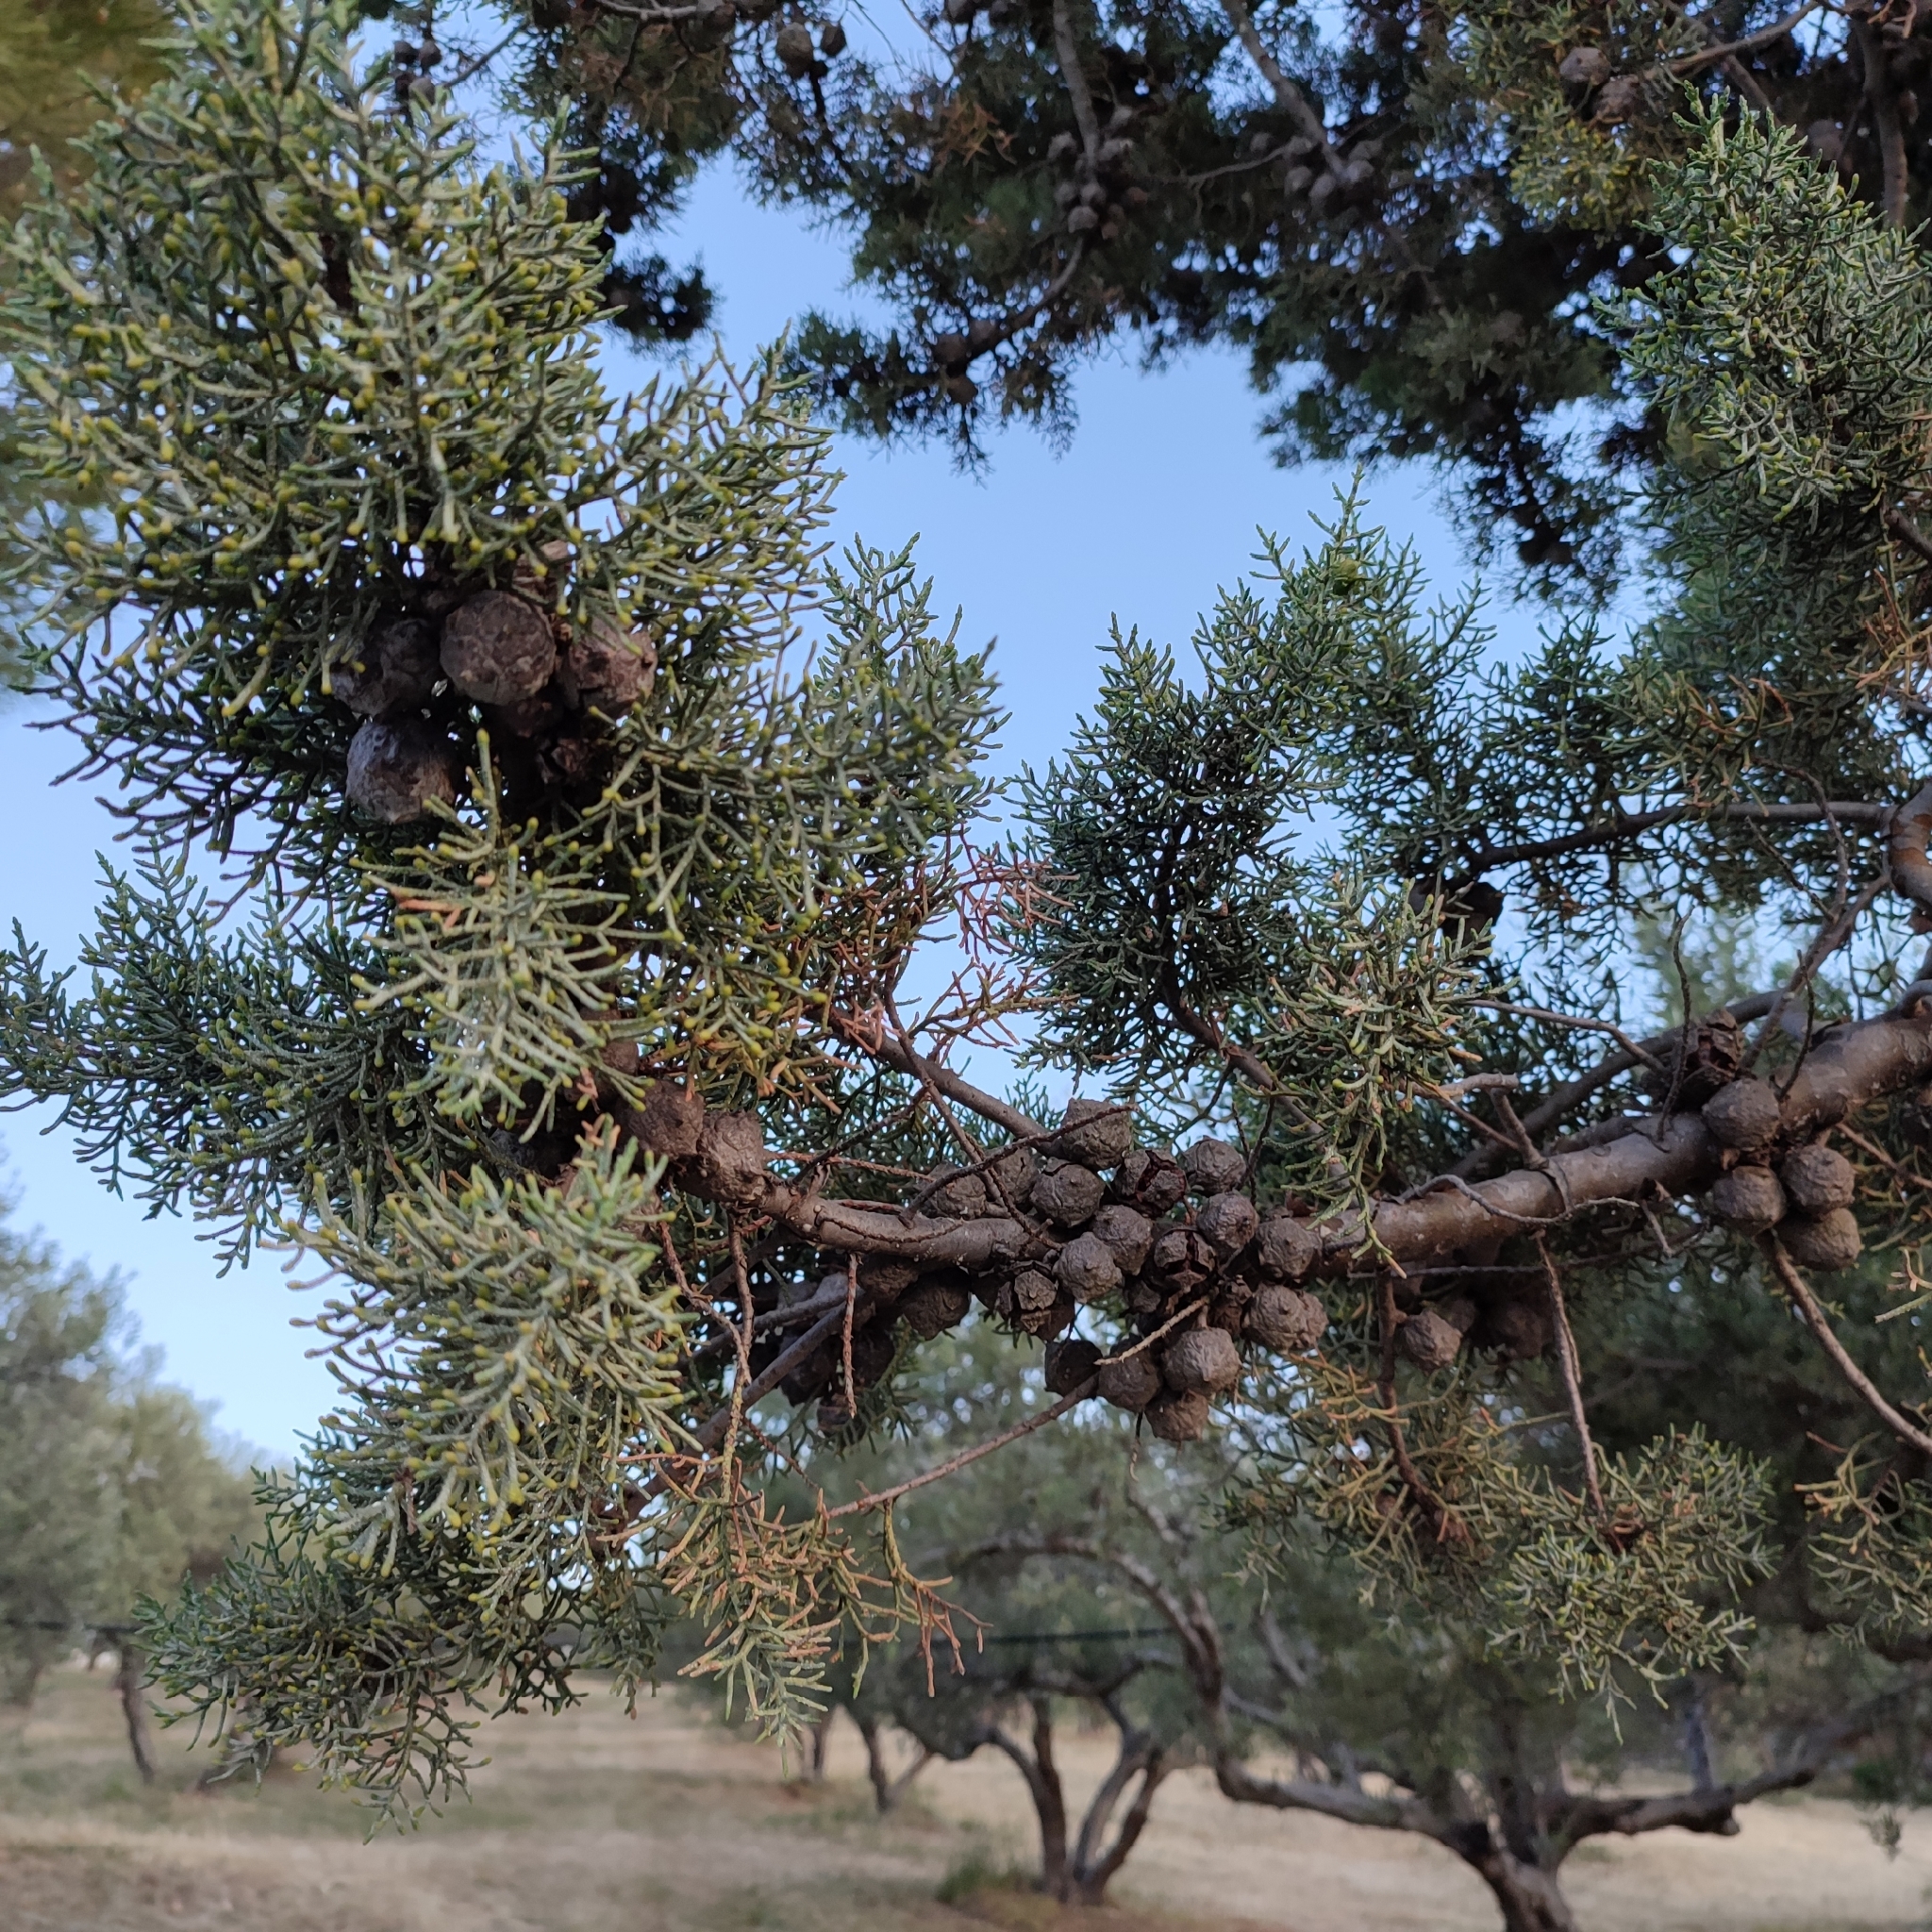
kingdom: Plantae
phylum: Tracheophyta
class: Pinopsida
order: Pinales
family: Cupressaceae
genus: Cupressus
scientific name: Cupressus sempervirens
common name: Italian cypress
